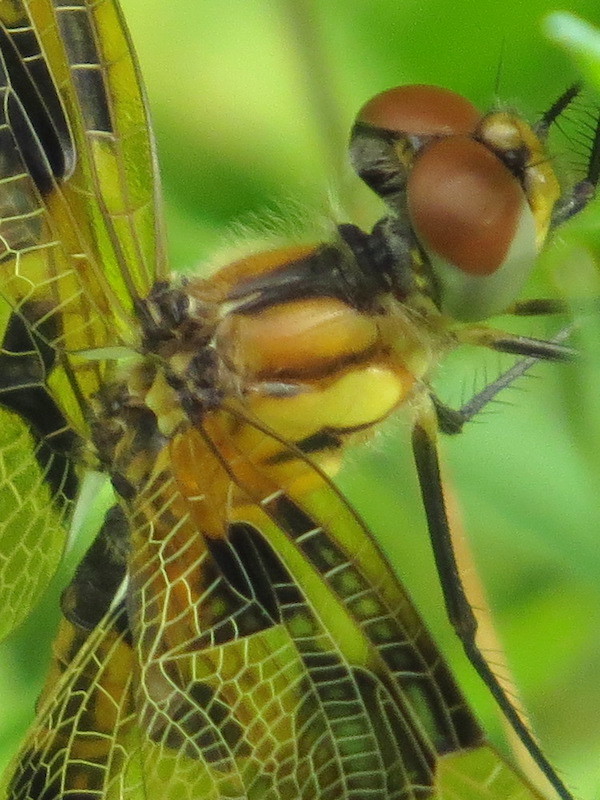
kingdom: Animalia
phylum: Arthropoda
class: Insecta
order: Odonata
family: Libellulidae
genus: Celithemis
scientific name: Celithemis eponina
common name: Halloween pennant
